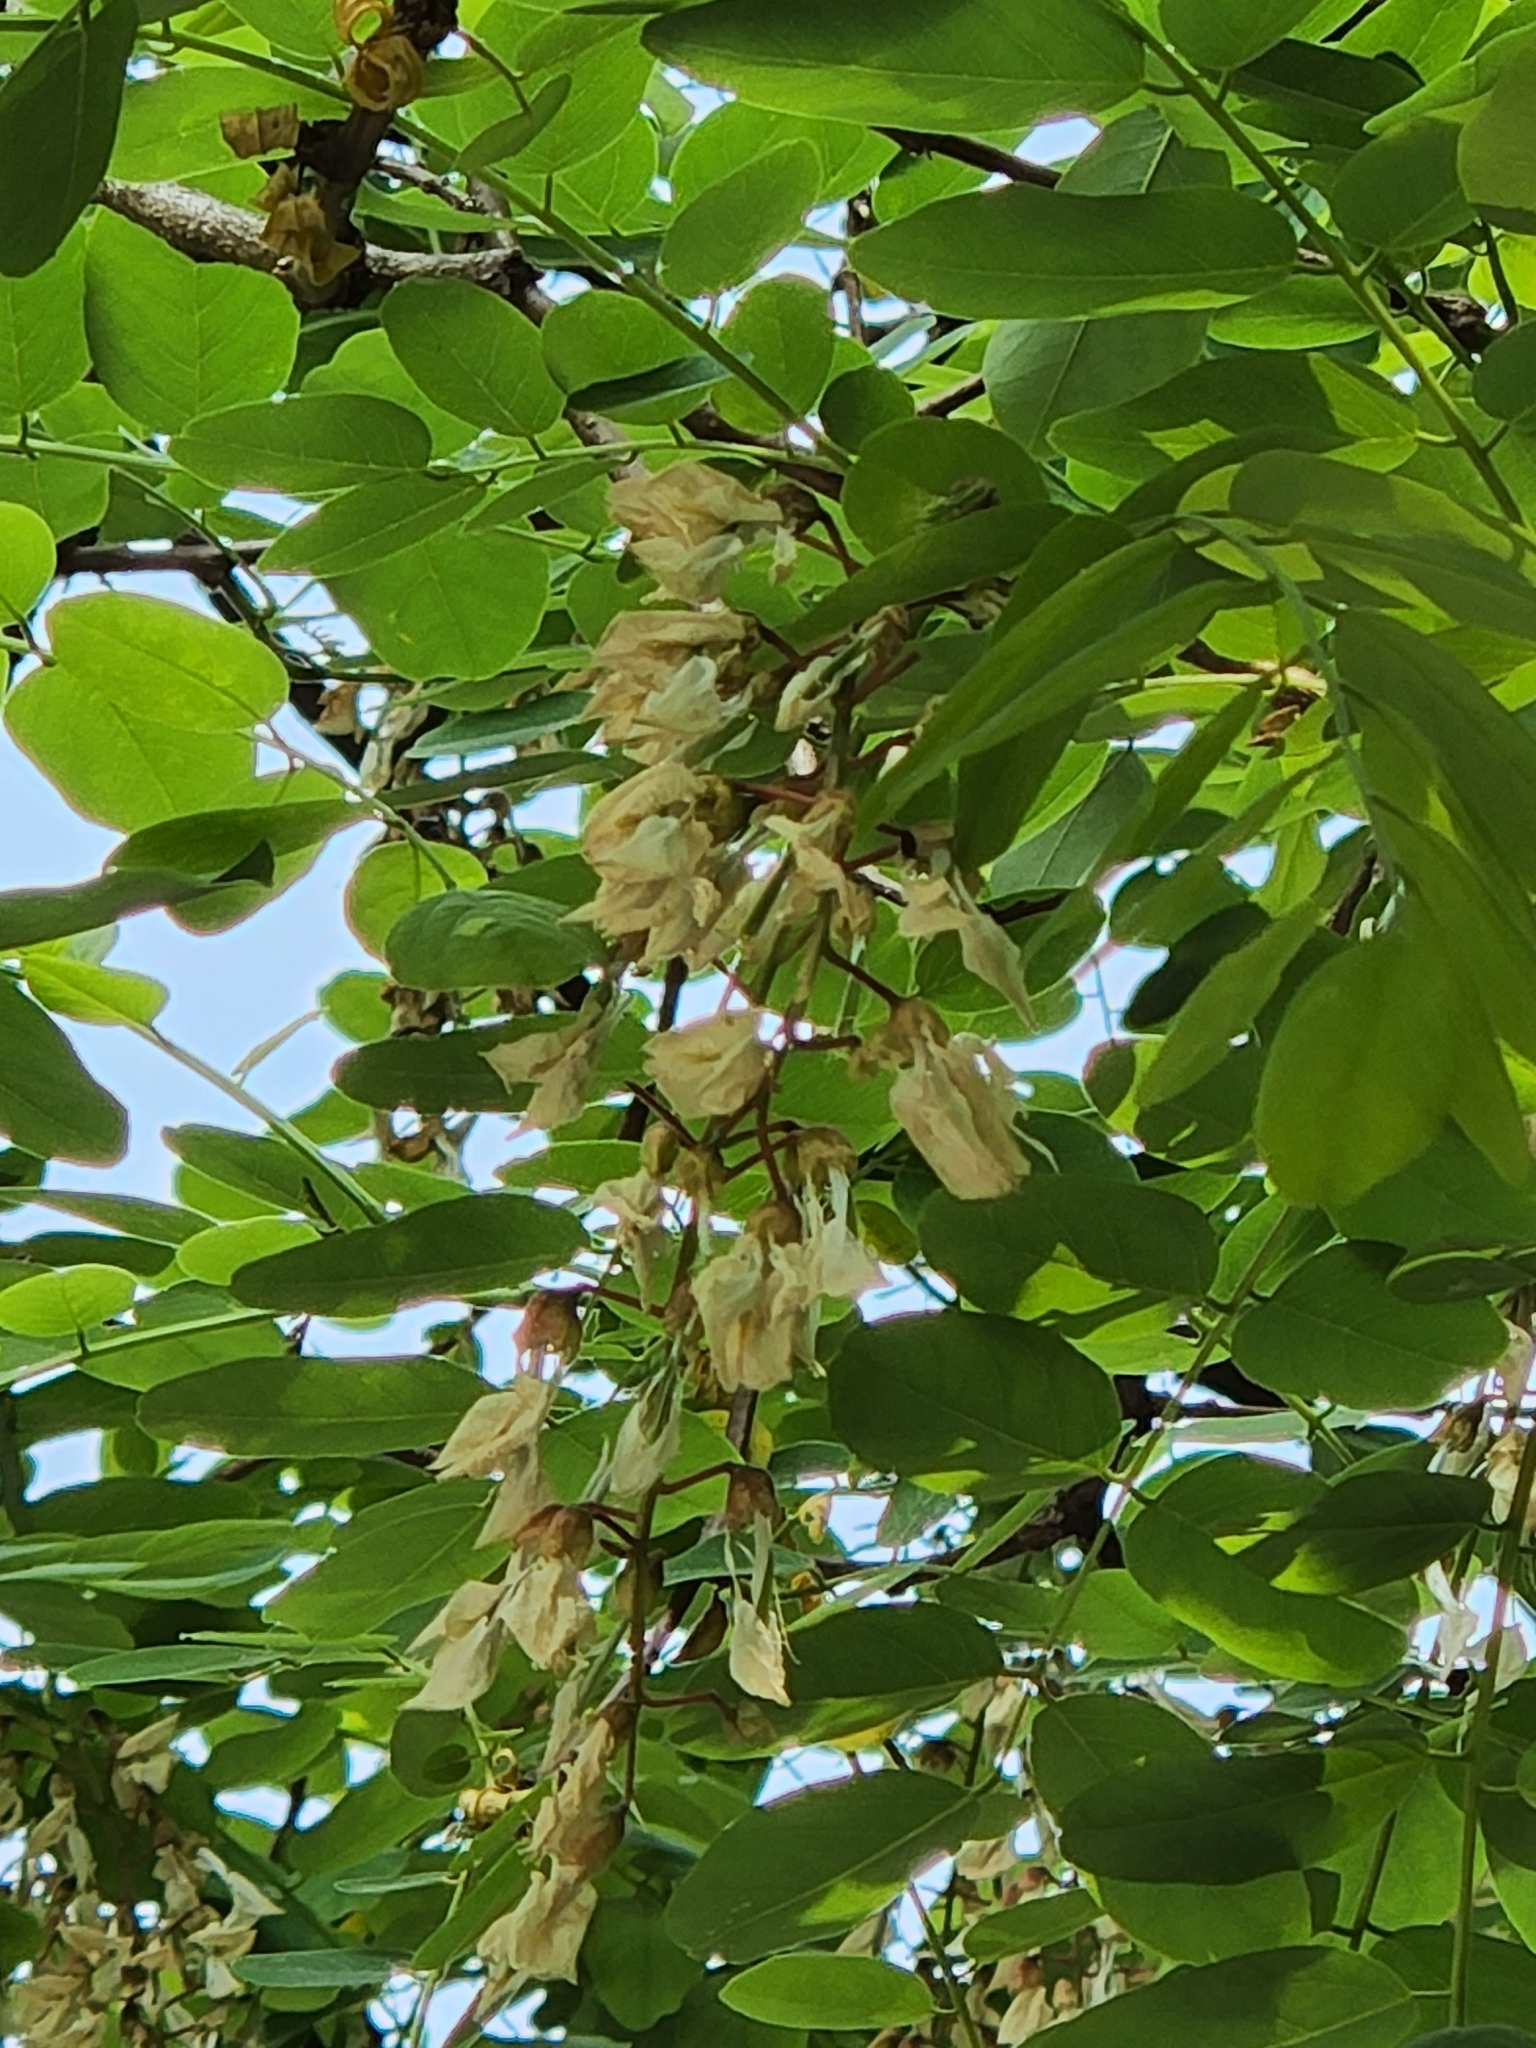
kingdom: Plantae
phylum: Tracheophyta
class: Magnoliopsida
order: Fabales
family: Fabaceae
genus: Robinia
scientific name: Robinia pseudoacacia
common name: Black locust
